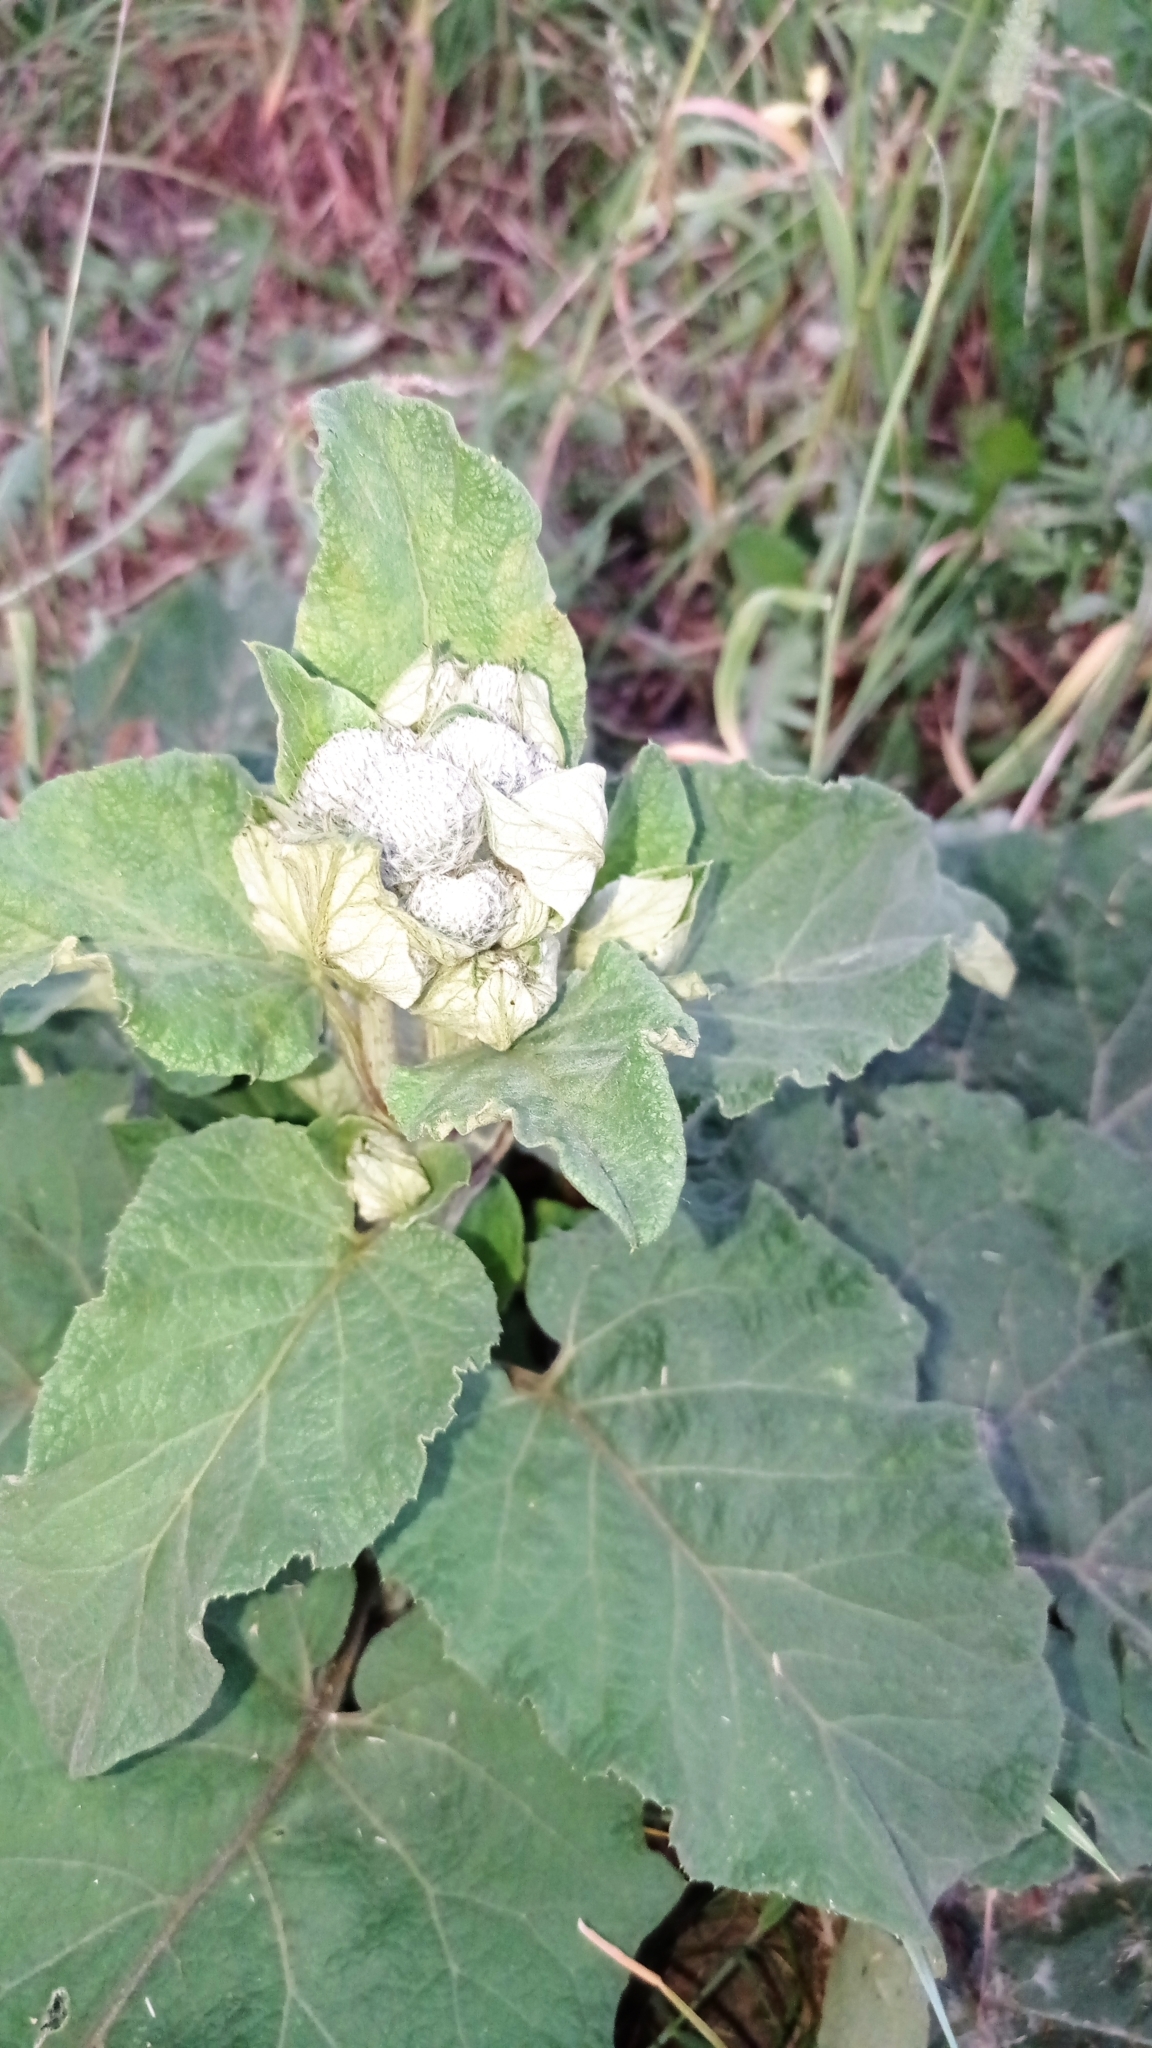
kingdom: Plantae
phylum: Tracheophyta
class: Magnoliopsida
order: Asterales
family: Asteraceae
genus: Arctium
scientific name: Arctium tomentosum
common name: Woolly burdock
